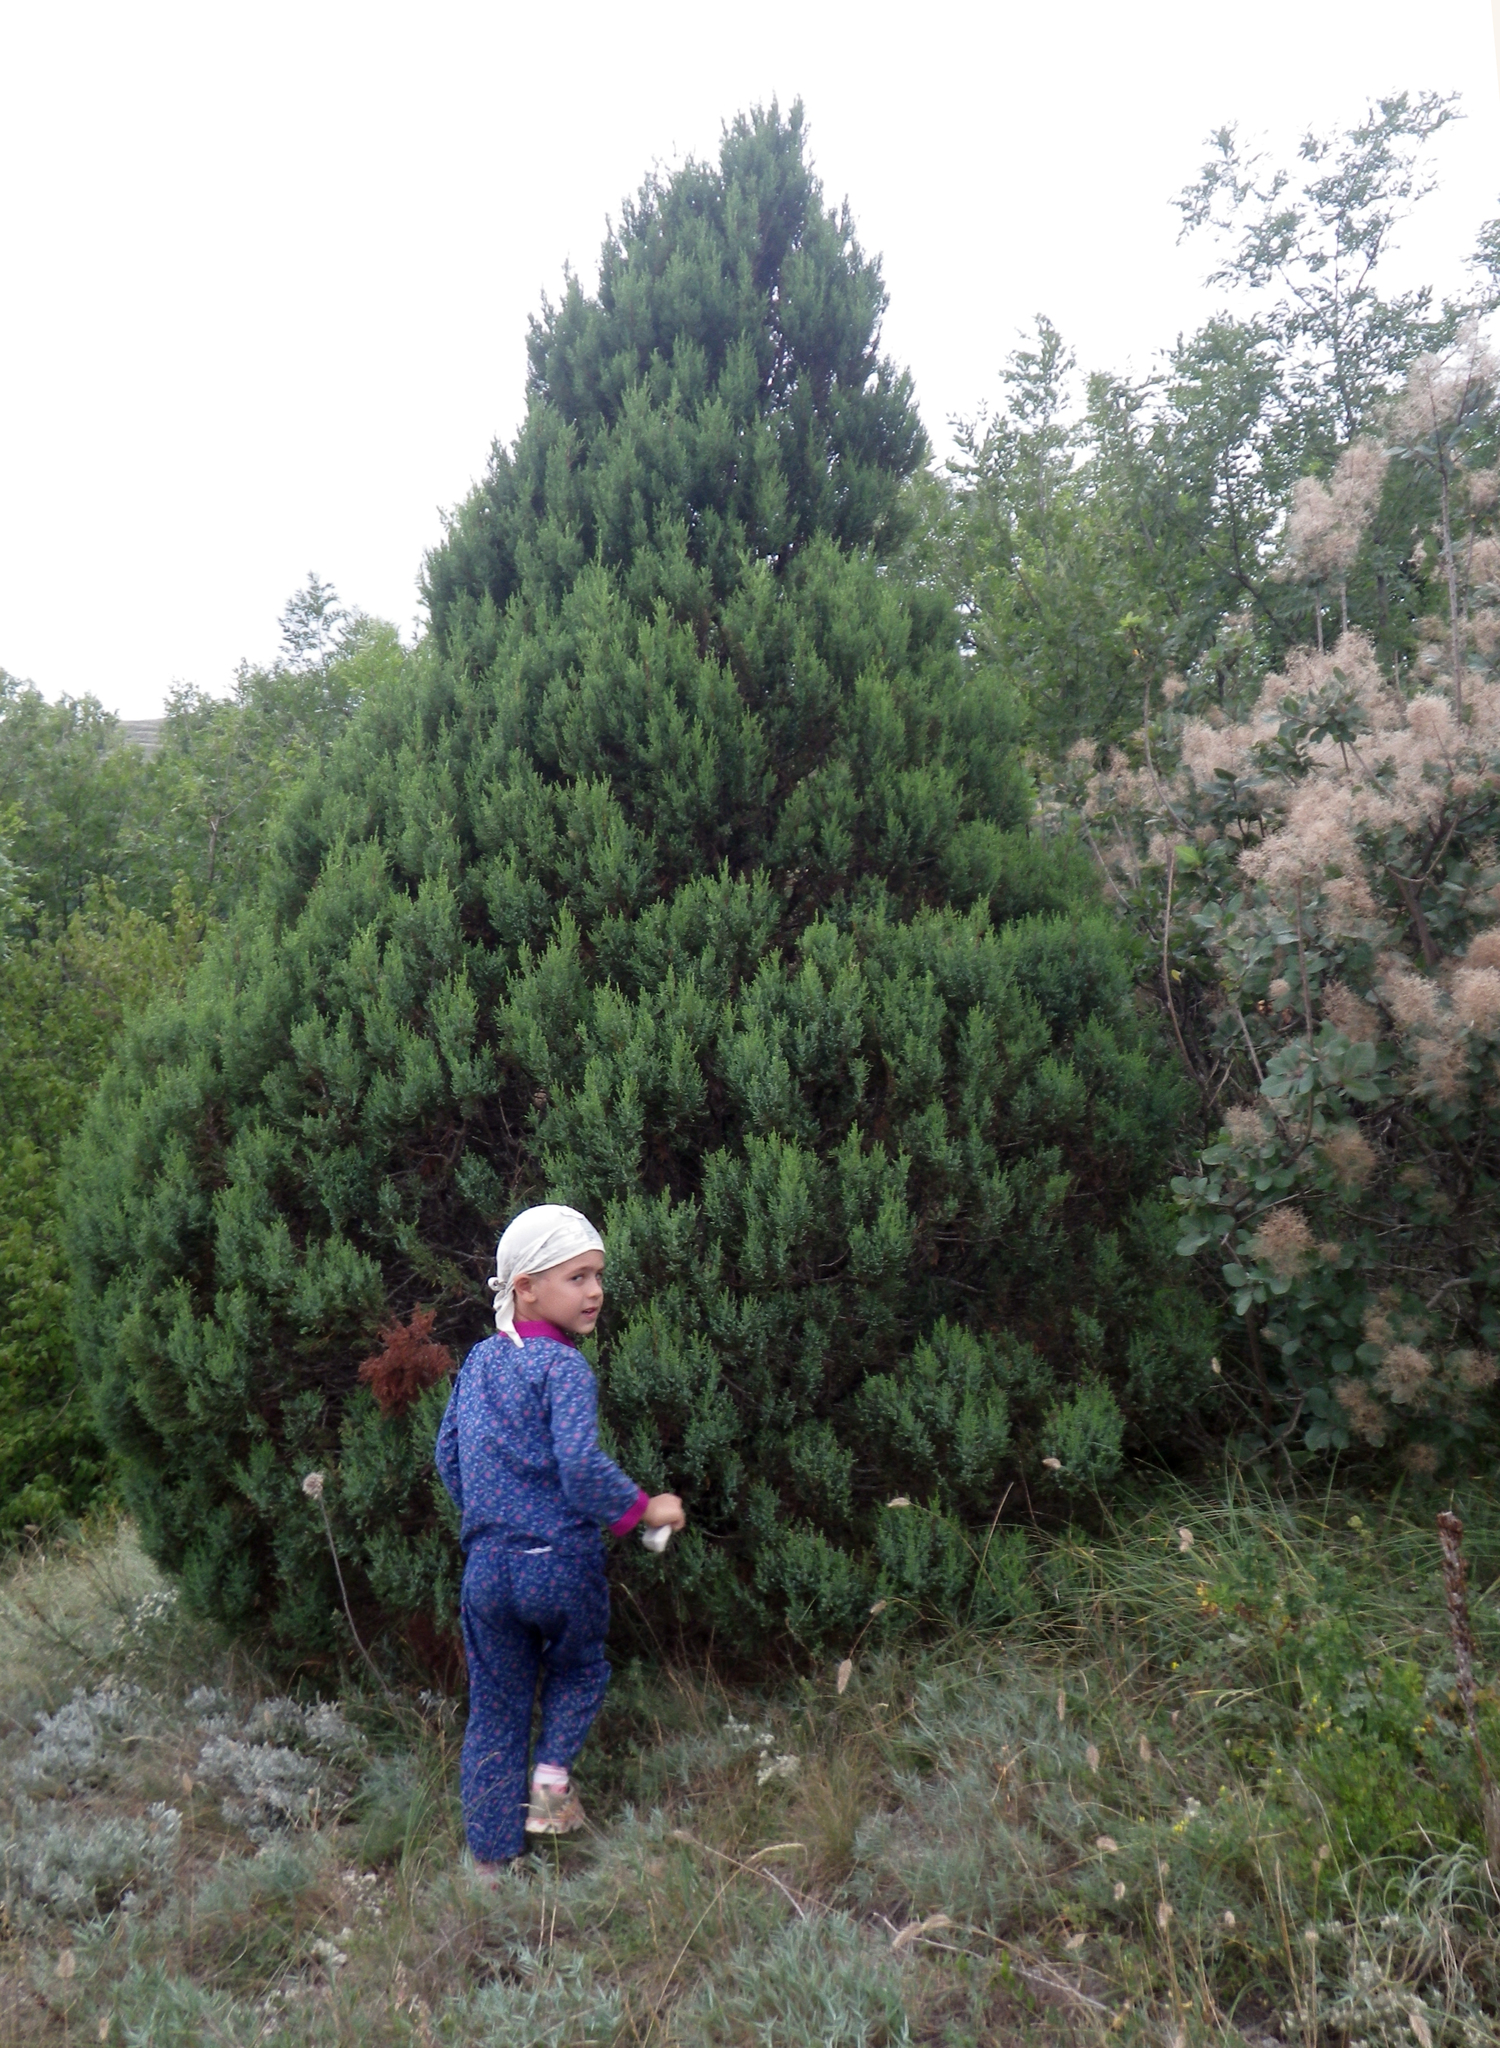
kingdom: Plantae
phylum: Tracheophyta
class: Pinopsida
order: Pinales
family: Cupressaceae
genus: Juniperus
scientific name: Juniperus excelsa
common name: Crimean juniper
